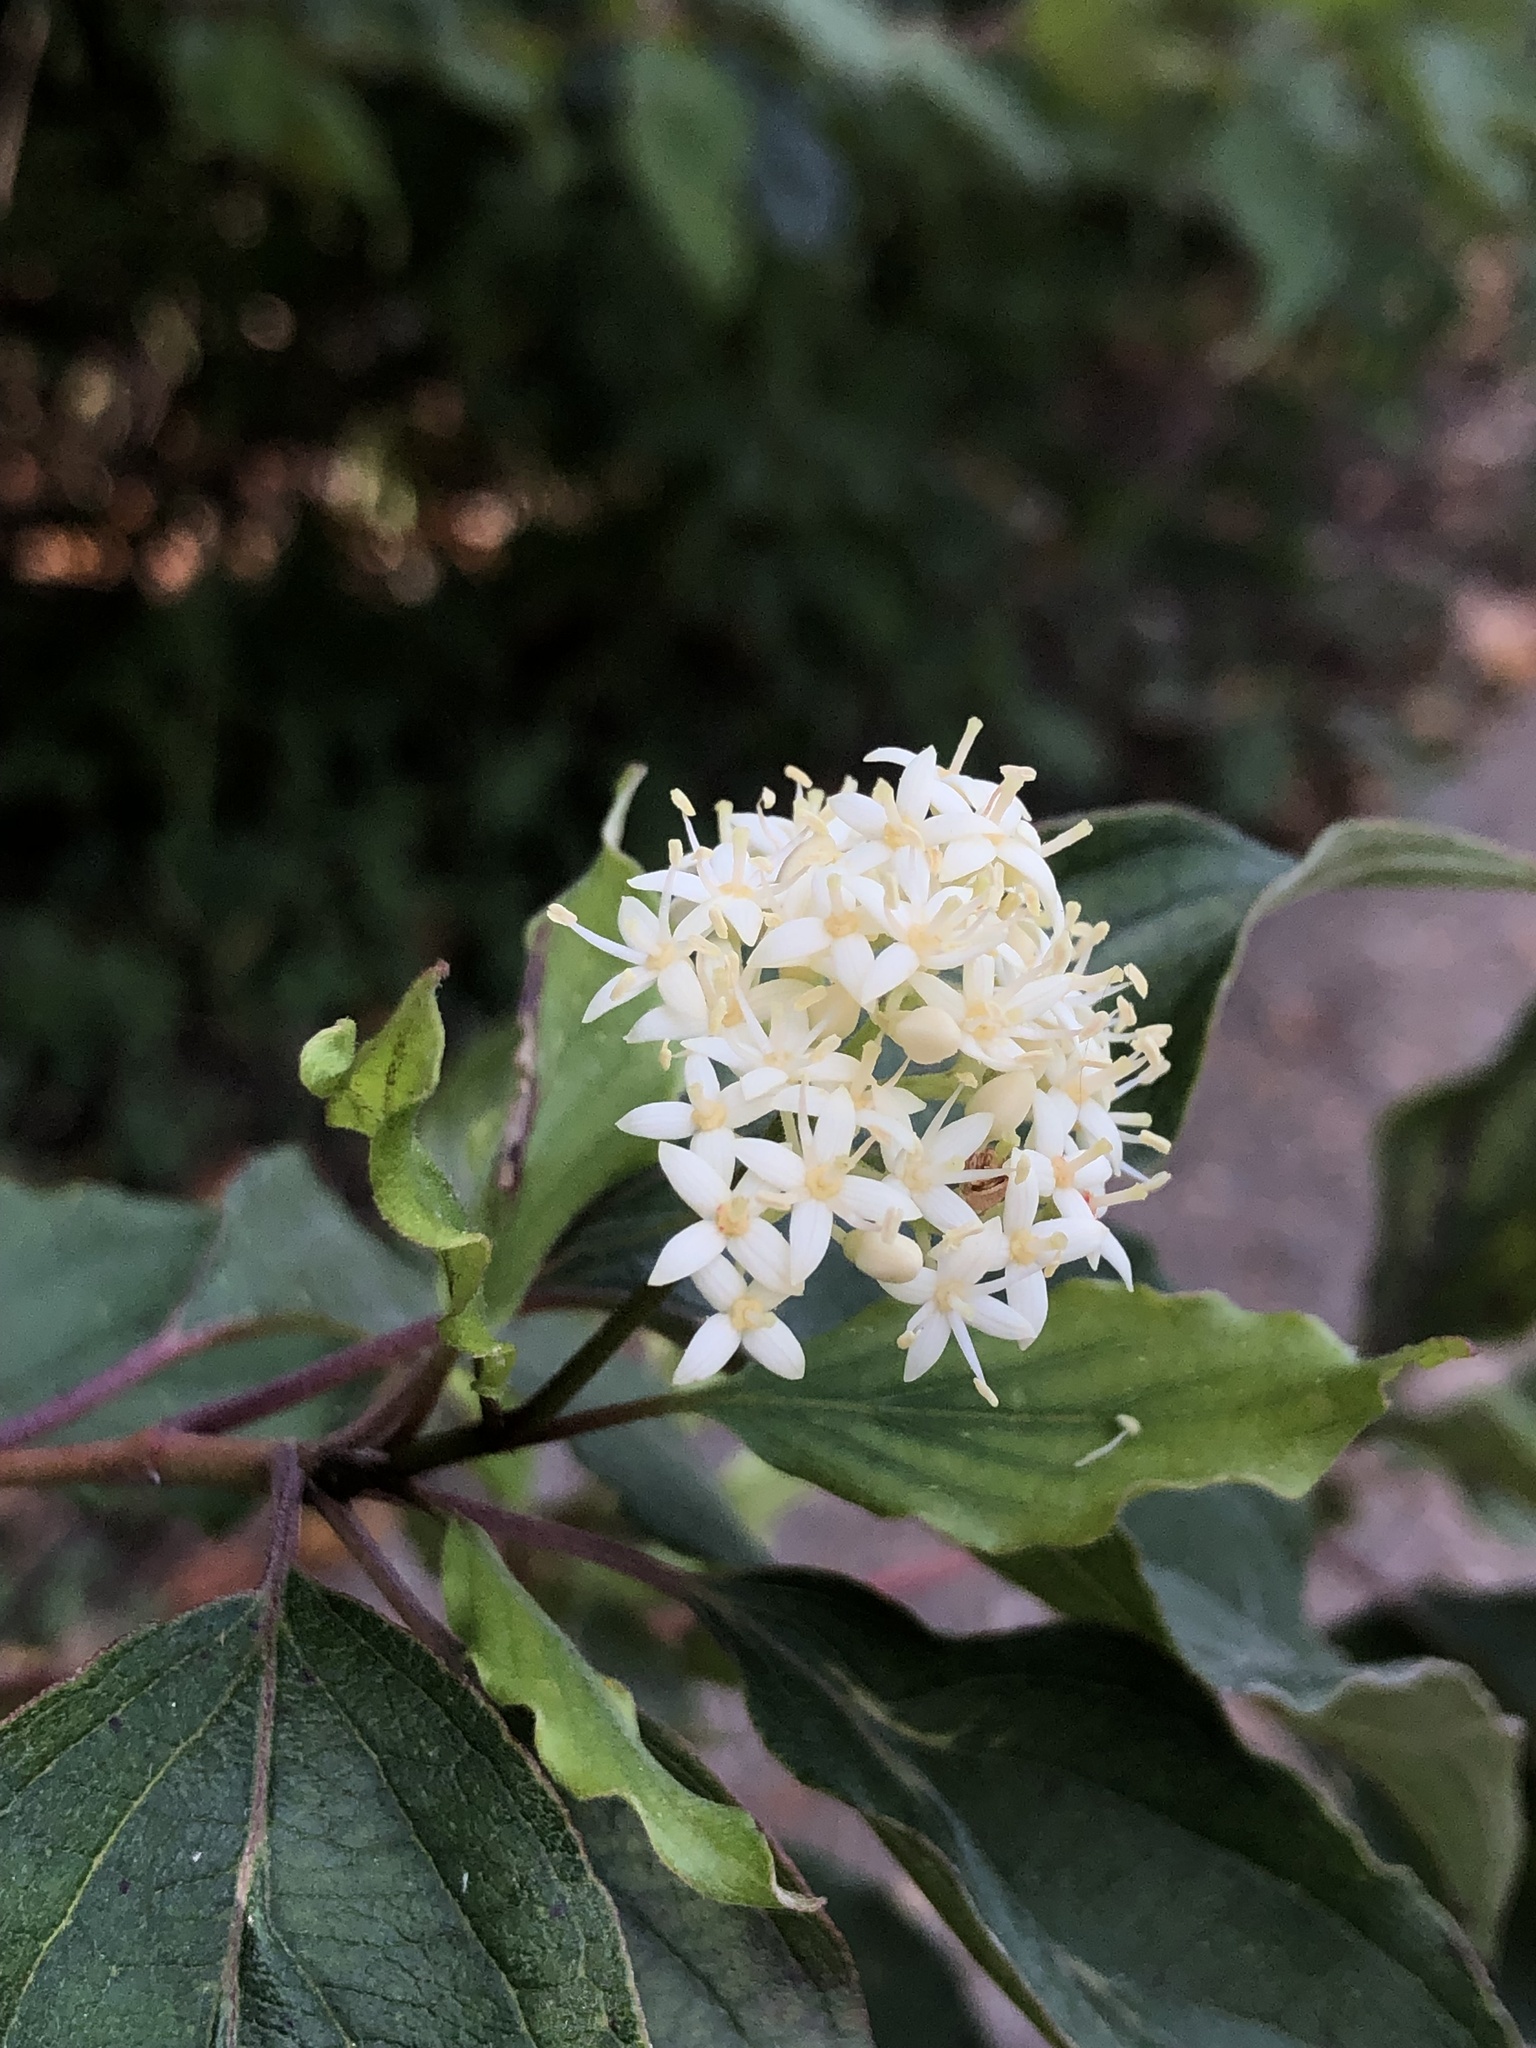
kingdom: Plantae
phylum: Tracheophyta
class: Magnoliopsida
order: Cornales
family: Cornaceae
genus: Cornus
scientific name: Cornus drummondii
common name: Rough-leaf dogwood
